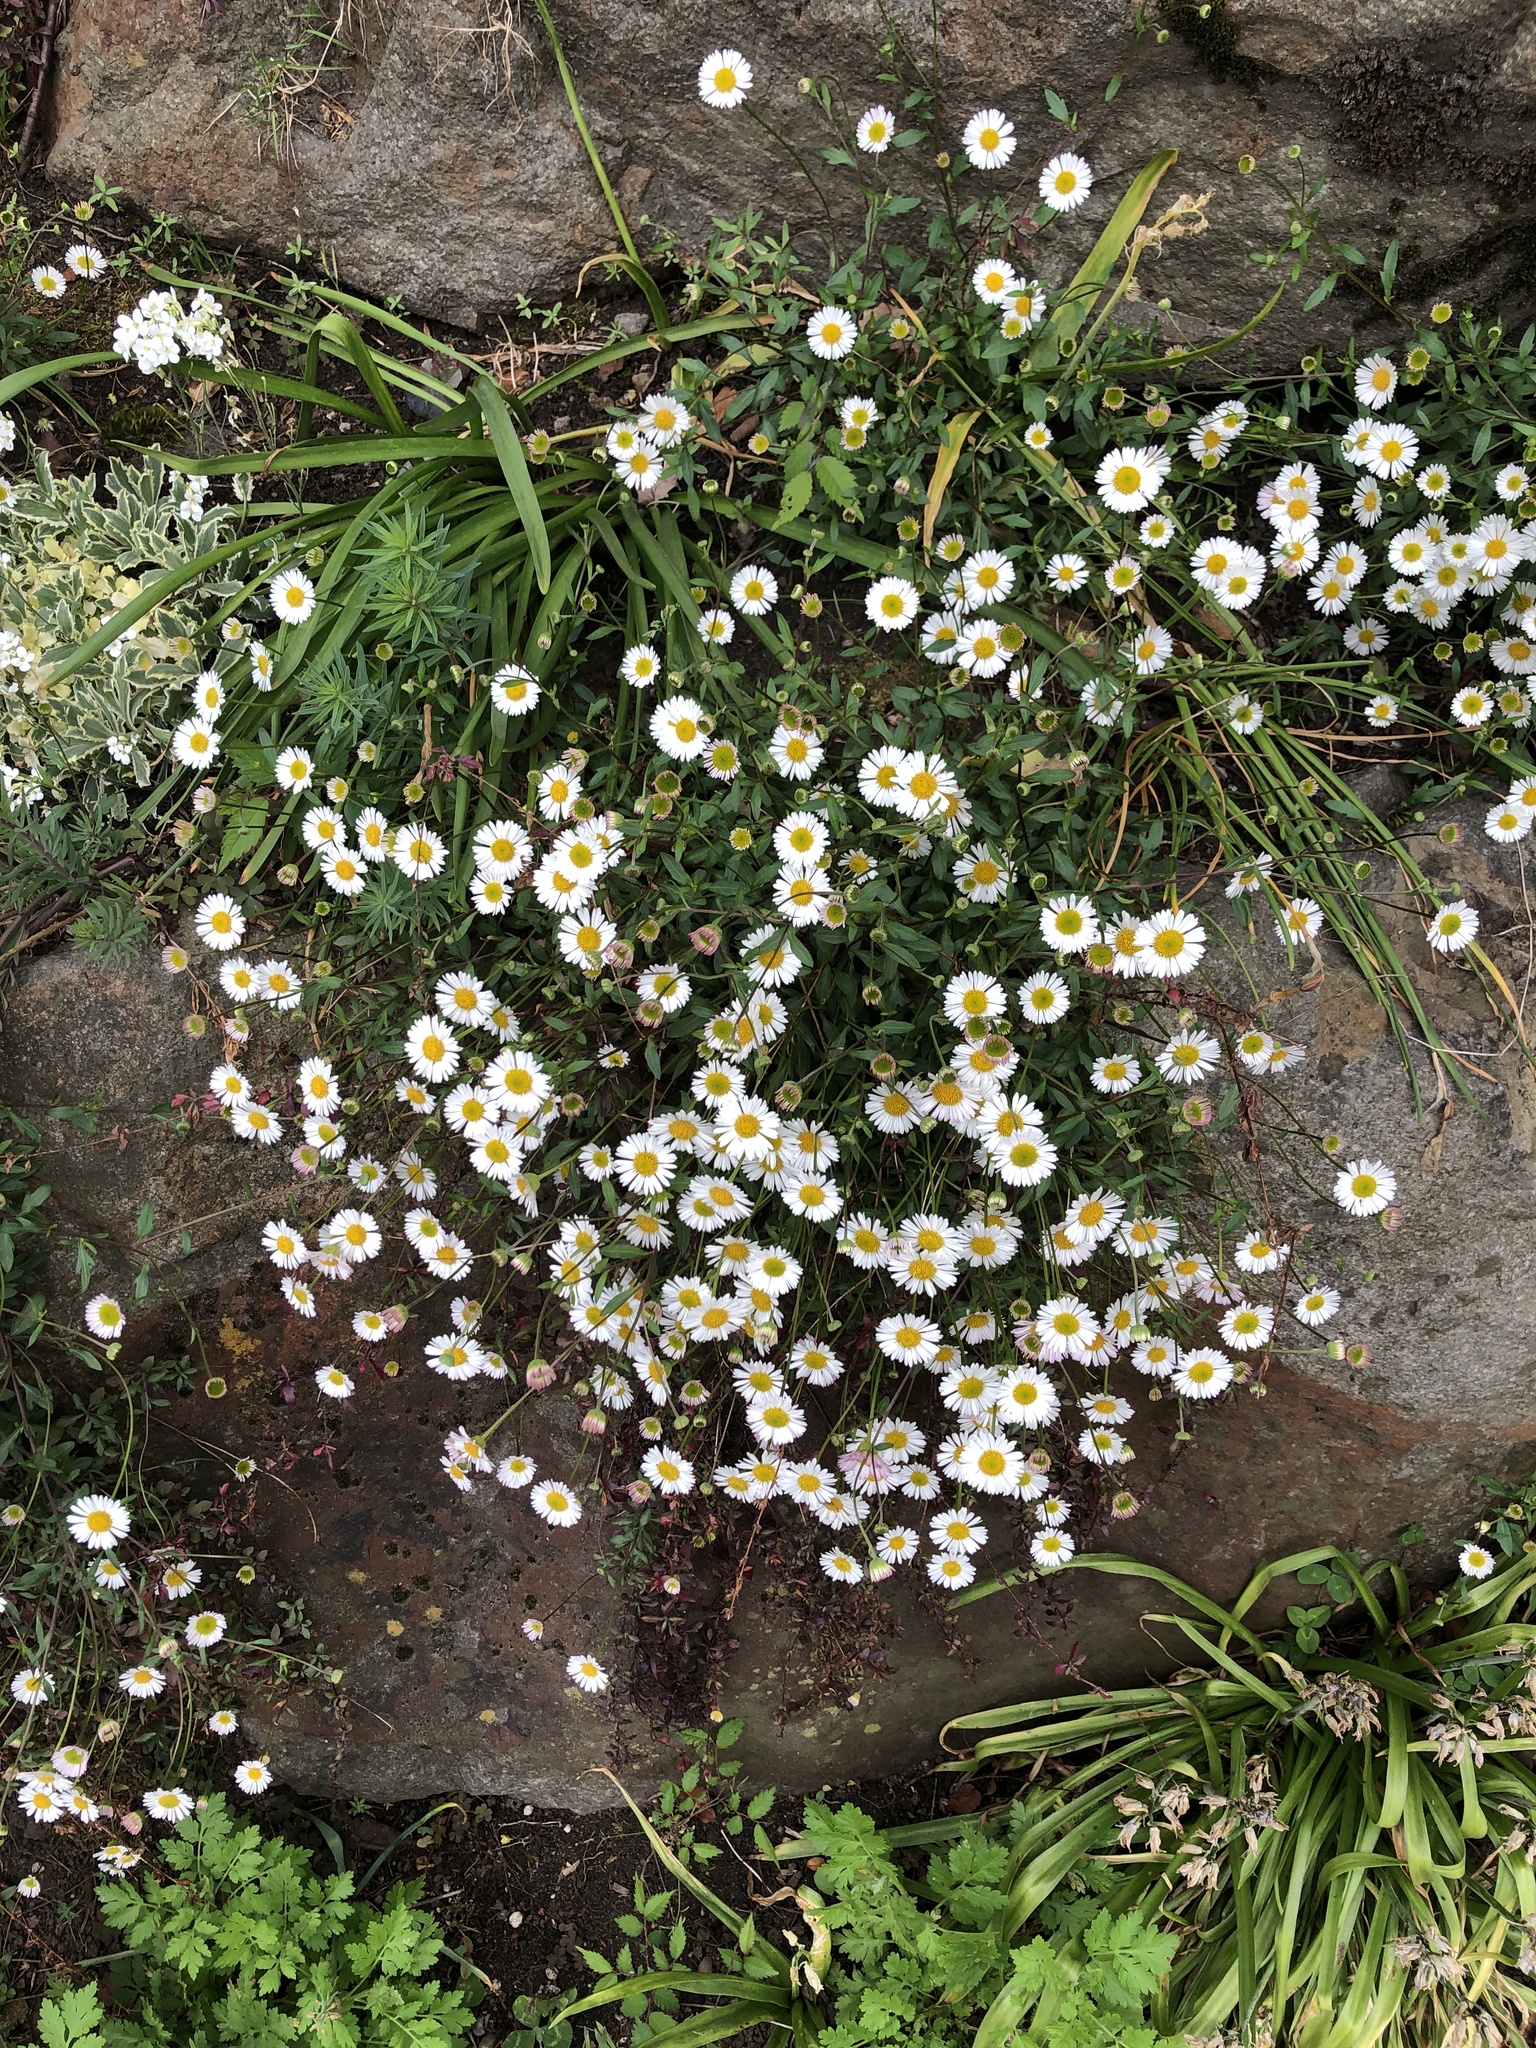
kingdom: Plantae
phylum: Tracheophyta
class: Magnoliopsida
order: Asterales
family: Asteraceae
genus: Erigeron
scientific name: Erigeron karvinskianus
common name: Mexican fleabane
